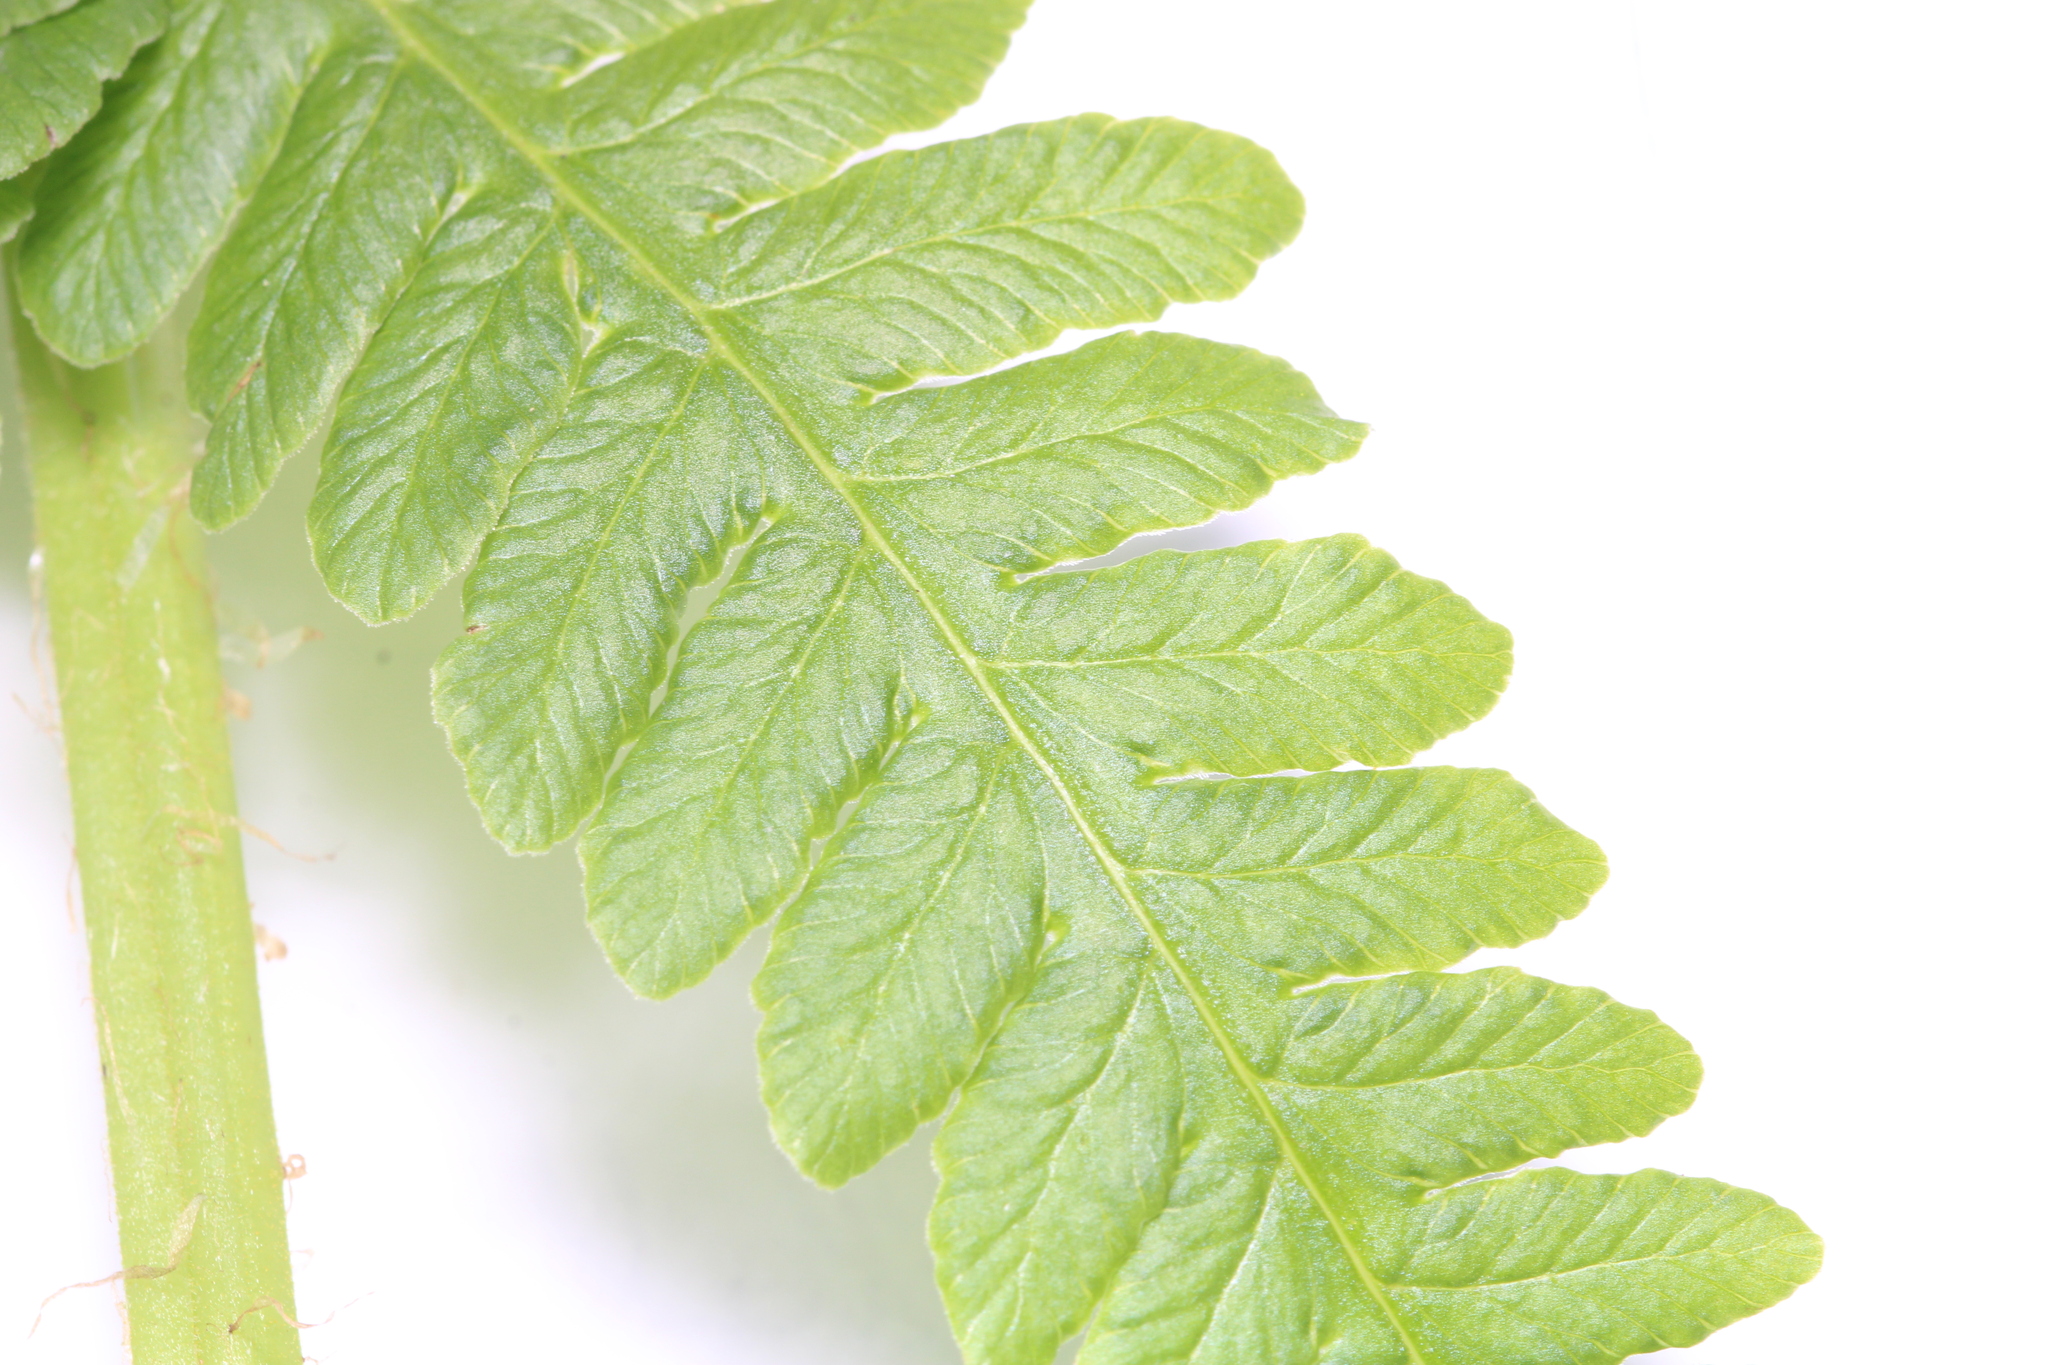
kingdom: Plantae
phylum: Tracheophyta
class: Polypodiopsida
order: Polypodiales
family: Thelypteridaceae
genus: Oreopteris
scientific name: Oreopteris limbosperma
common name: Lemon-scented fern
